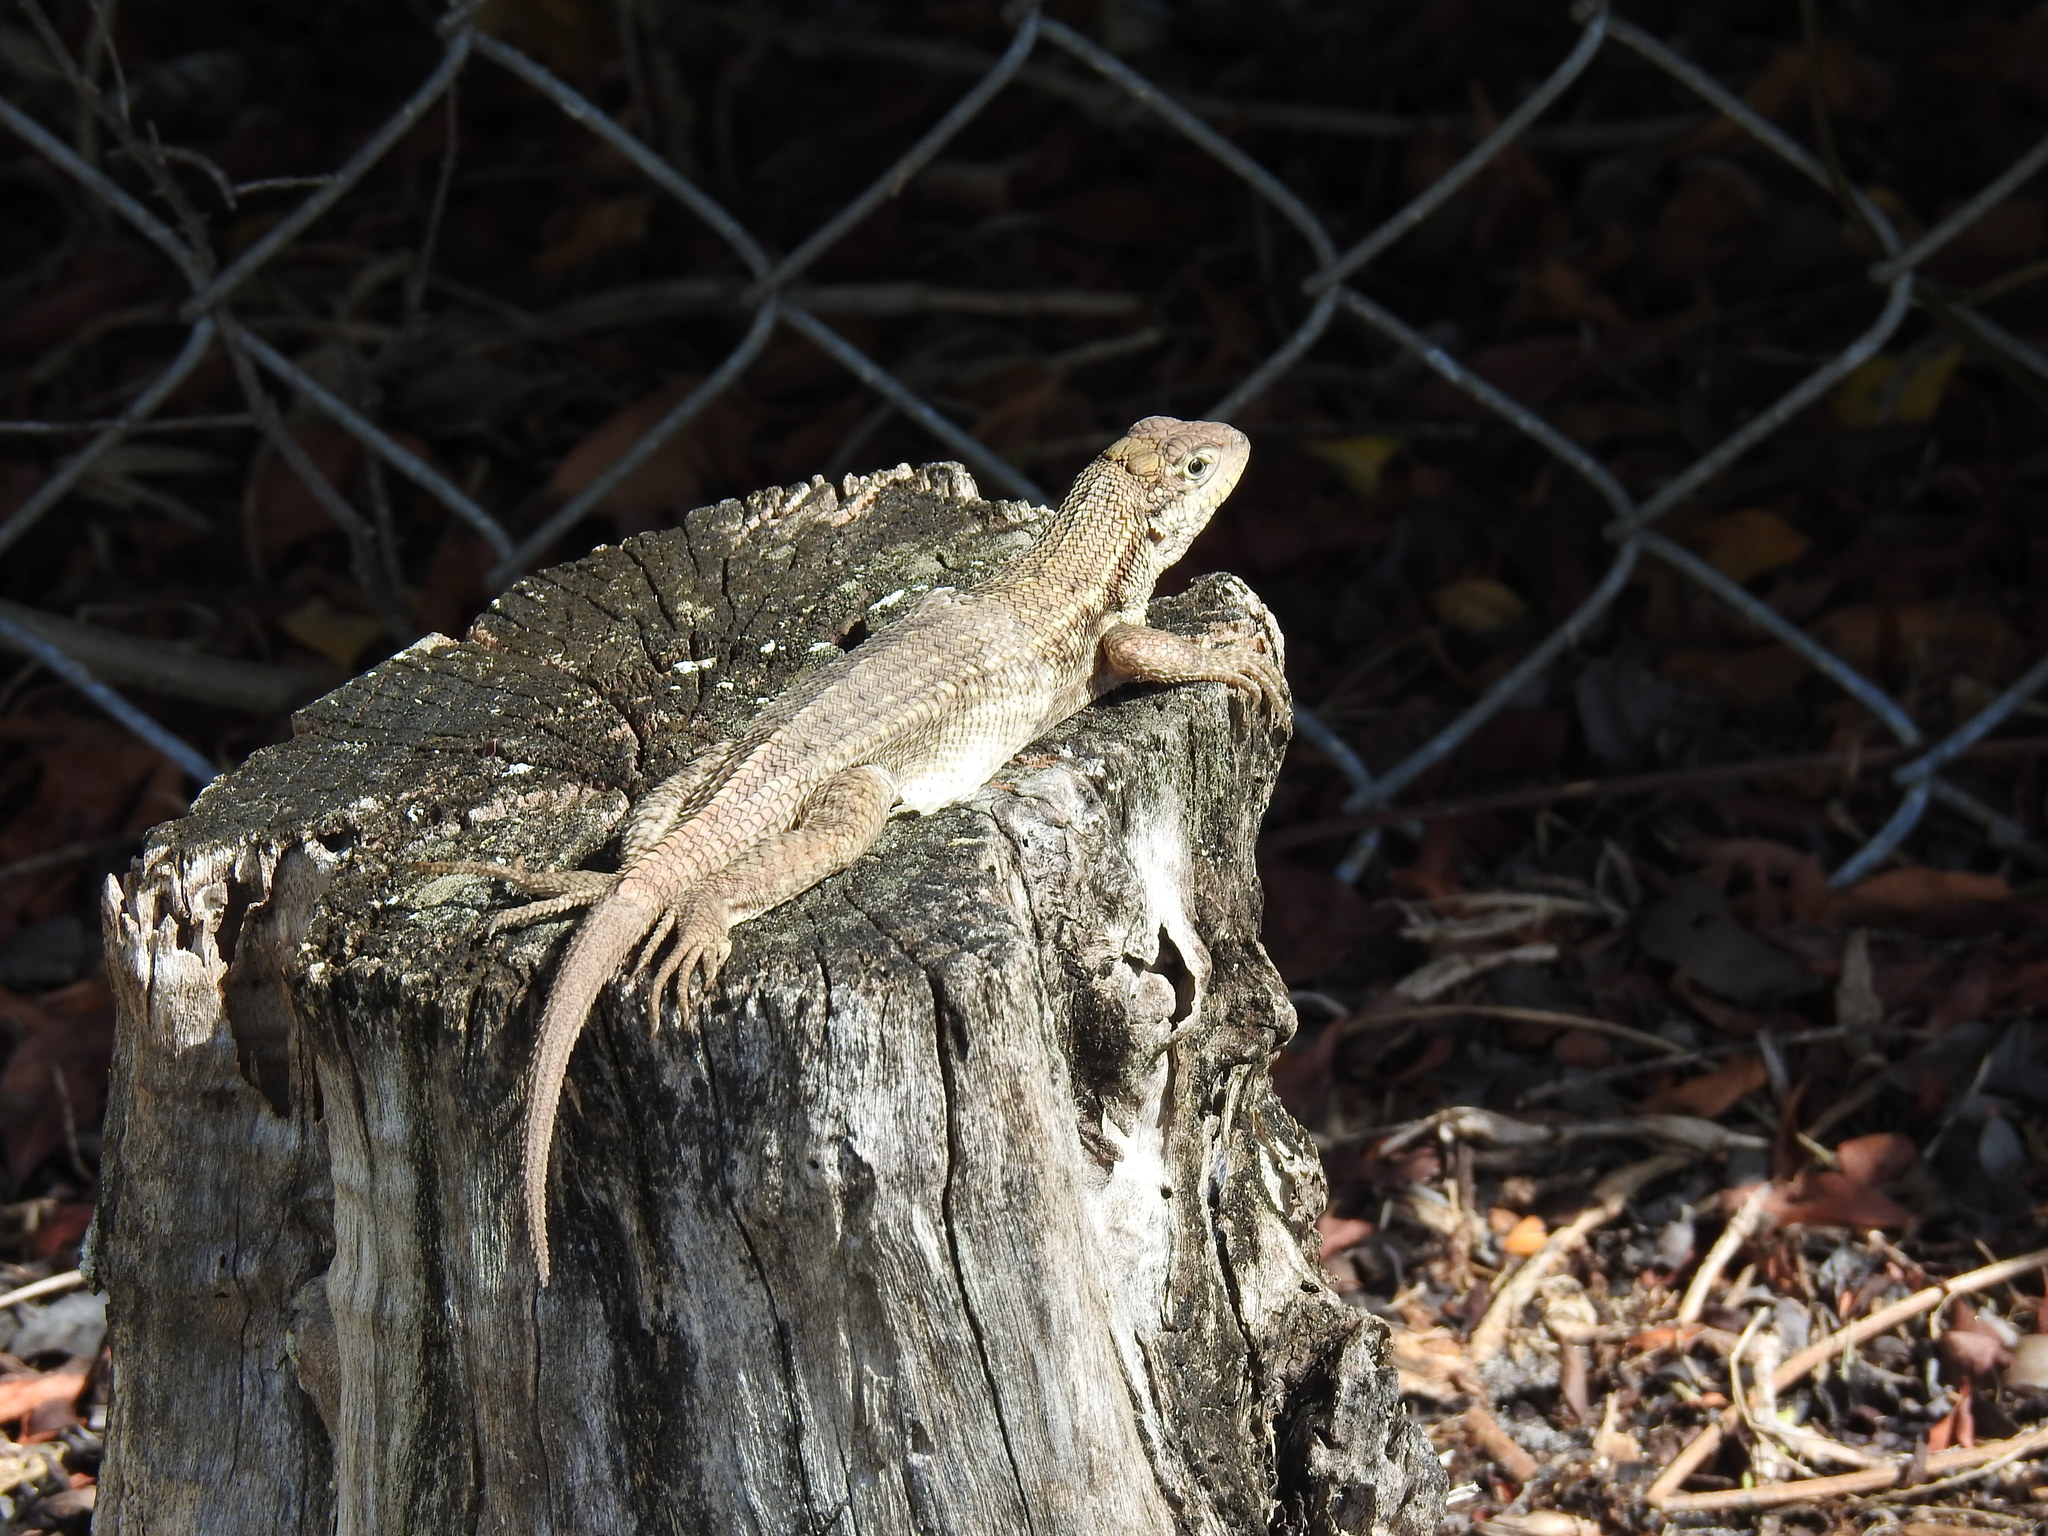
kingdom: Animalia
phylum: Chordata
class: Squamata
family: Leiocephalidae
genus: Leiocephalus
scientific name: Leiocephalus carinatus
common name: Northern curly-tailed lizard
